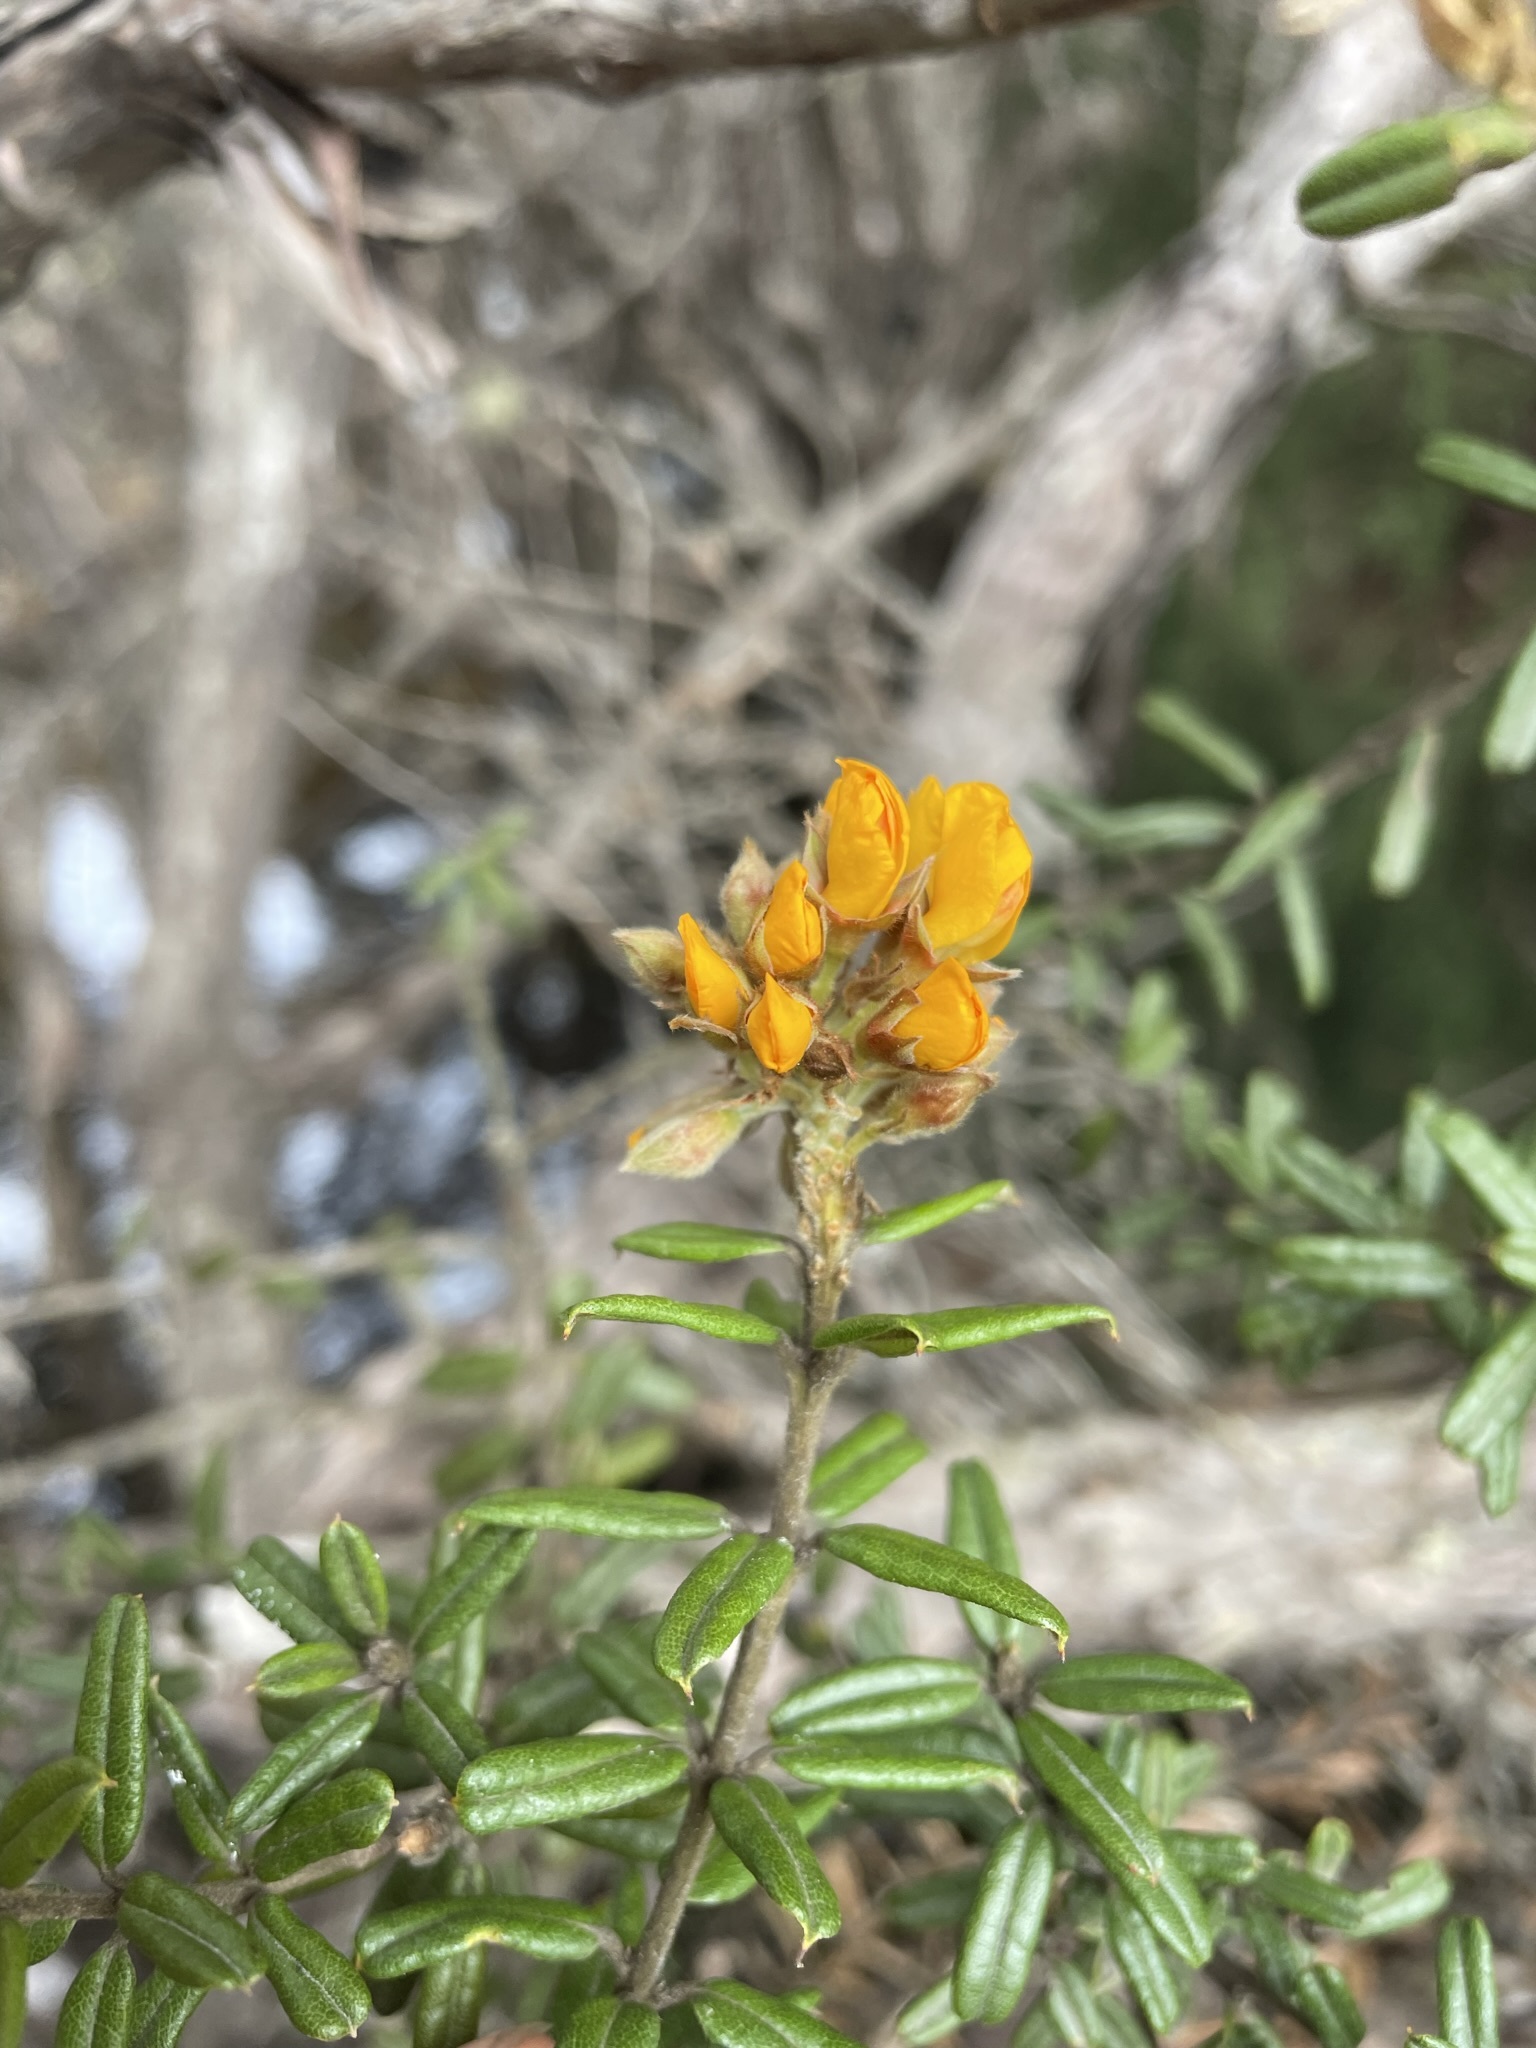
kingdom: Plantae
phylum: Tracheophyta
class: Magnoliopsida
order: Fabales
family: Fabaceae
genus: Oxylobium
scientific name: Oxylobium ellipticum
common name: Golden shaggy-pea
